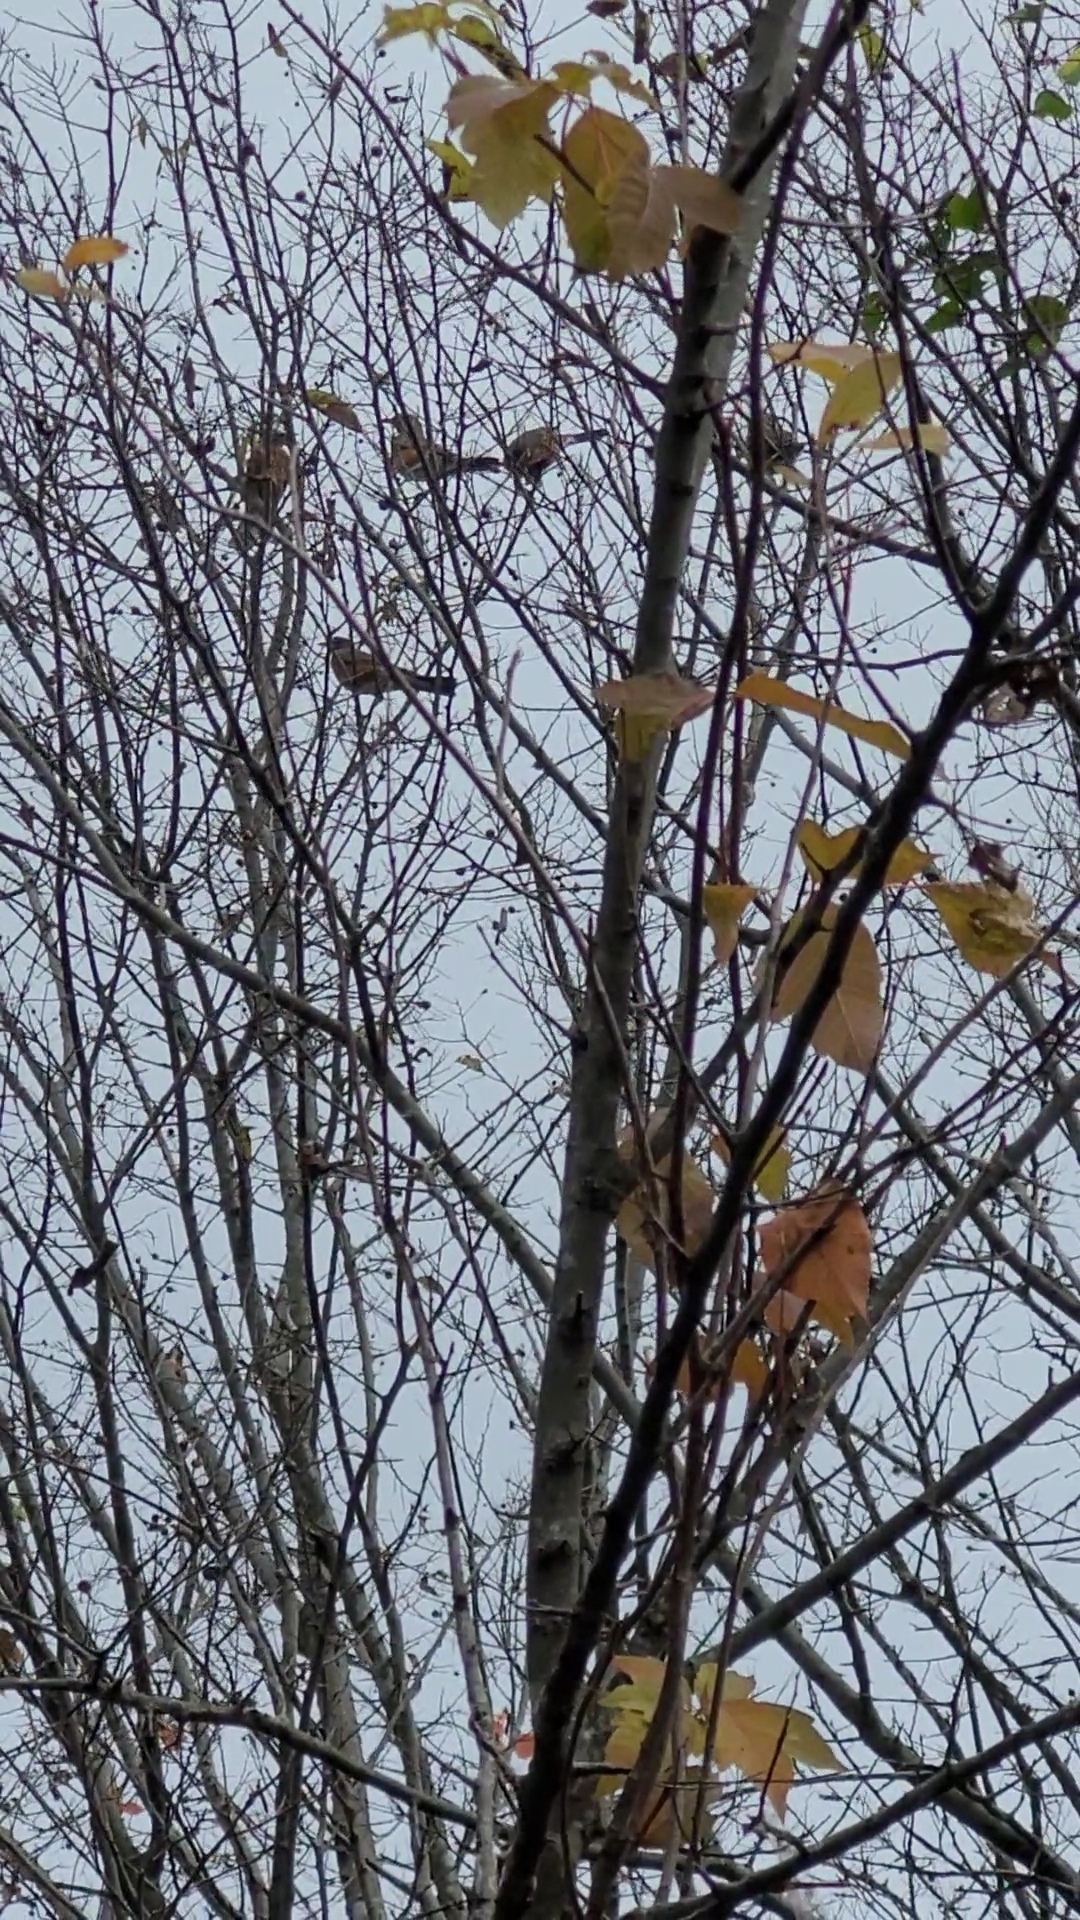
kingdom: Animalia
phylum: Chordata
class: Aves
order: Passeriformes
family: Turdidae
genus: Turdus
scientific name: Turdus migratorius
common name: American robin
